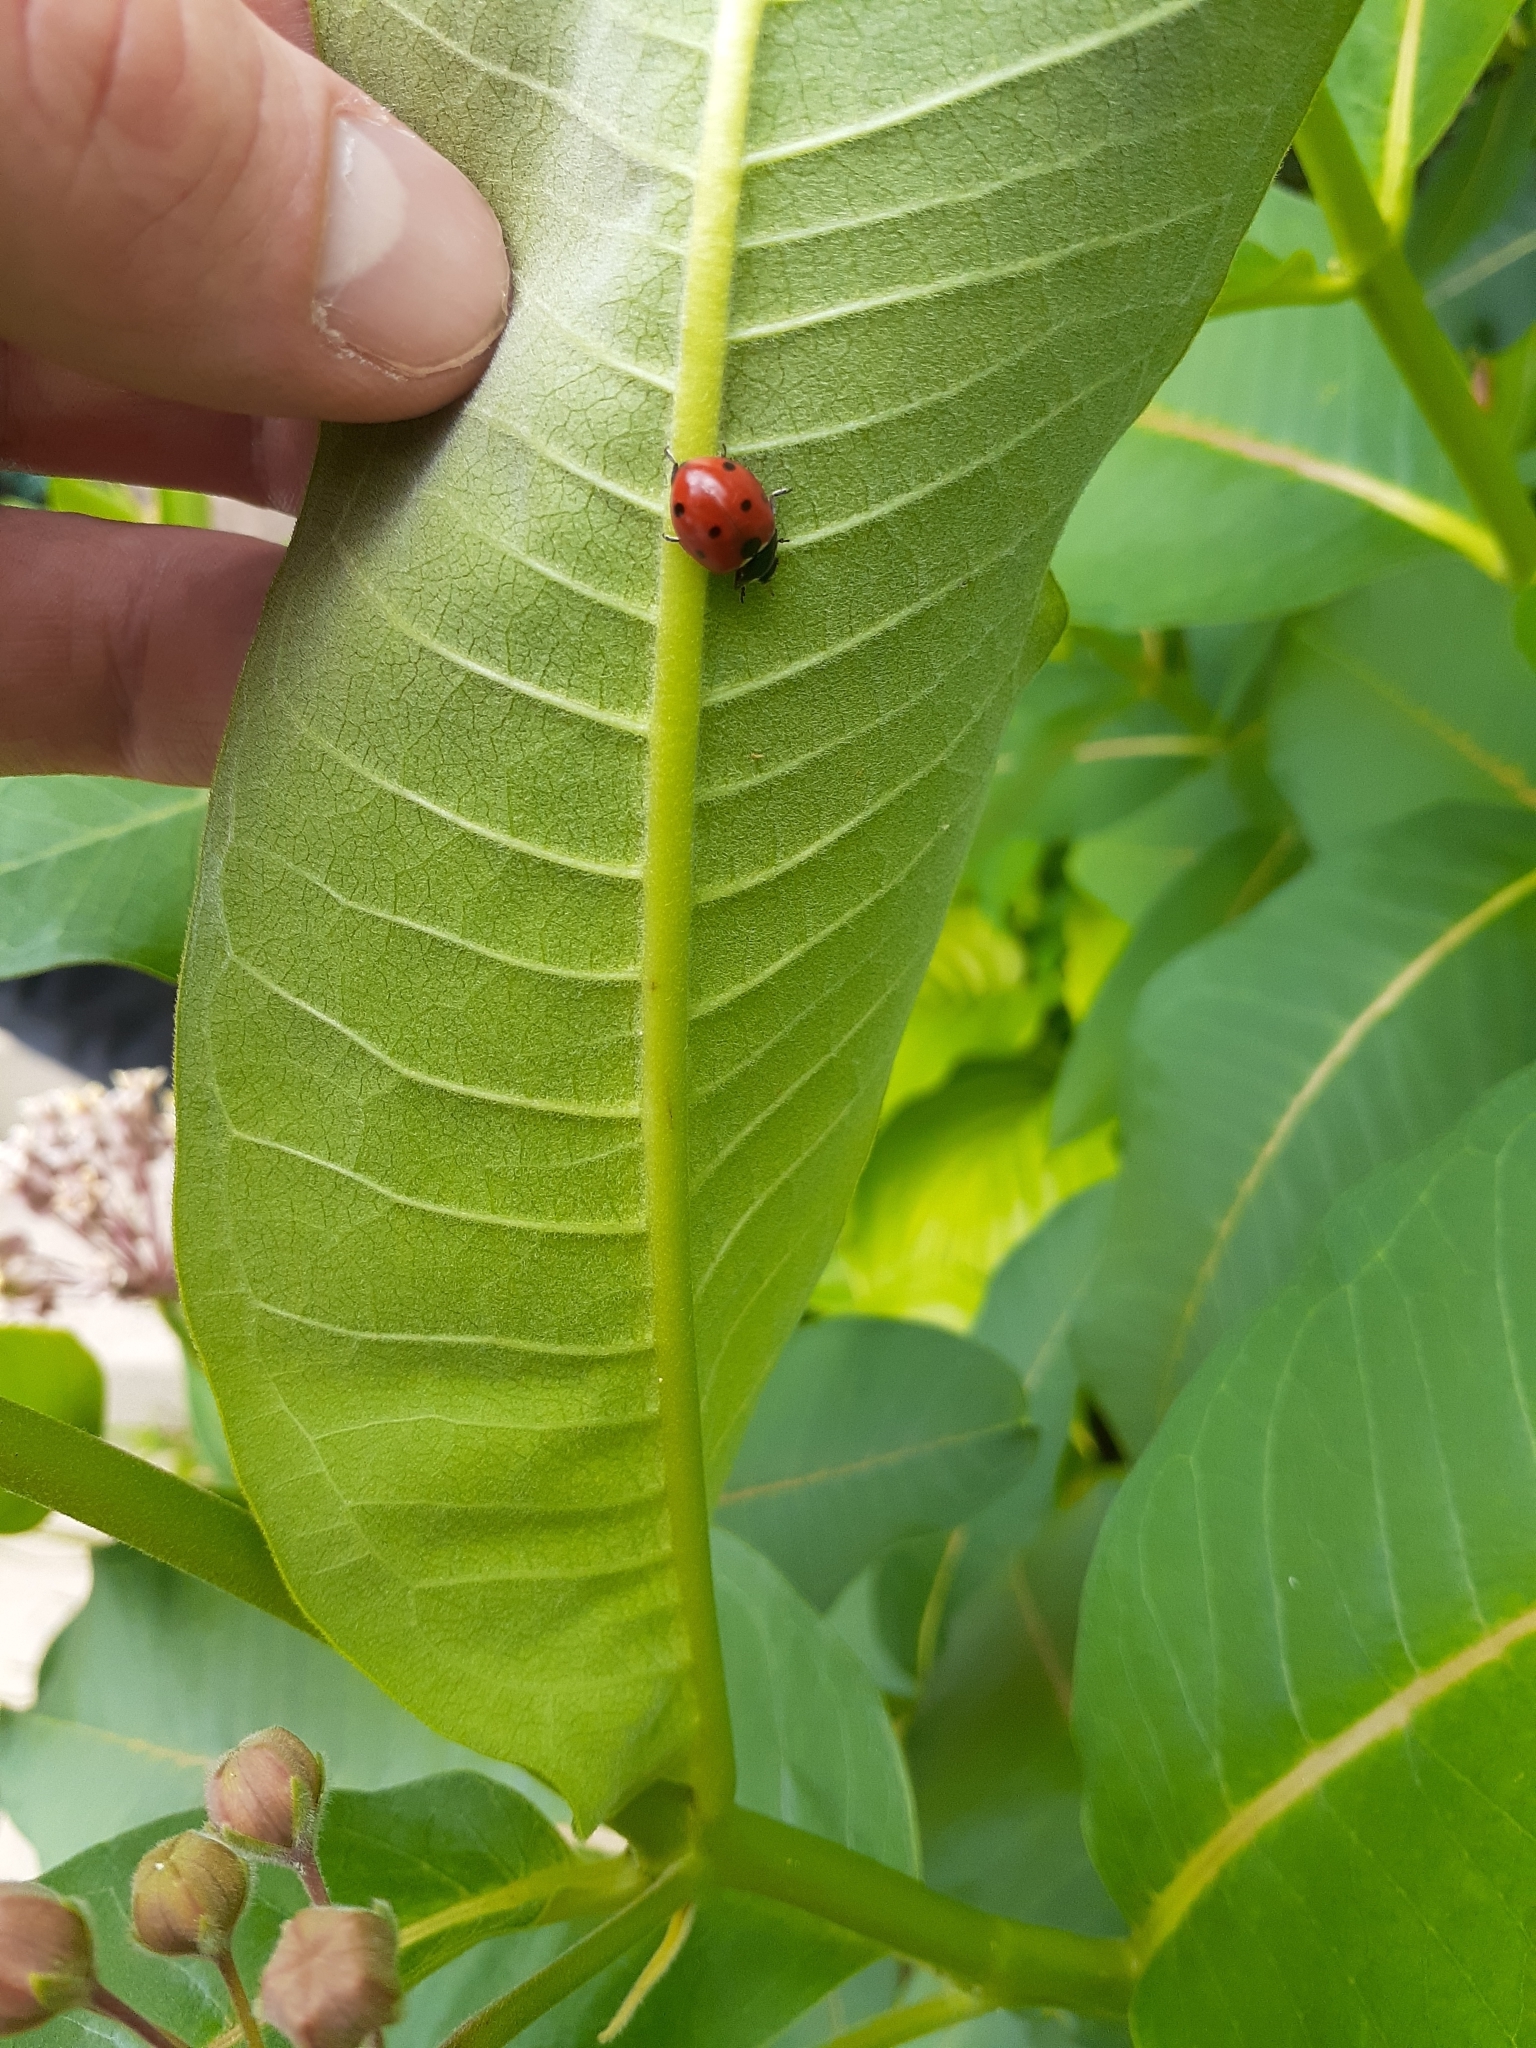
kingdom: Animalia
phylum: Arthropoda
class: Insecta
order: Coleoptera
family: Coccinellidae
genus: Coccinella
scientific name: Coccinella septempunctata
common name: Sevenspotted lady beetle
